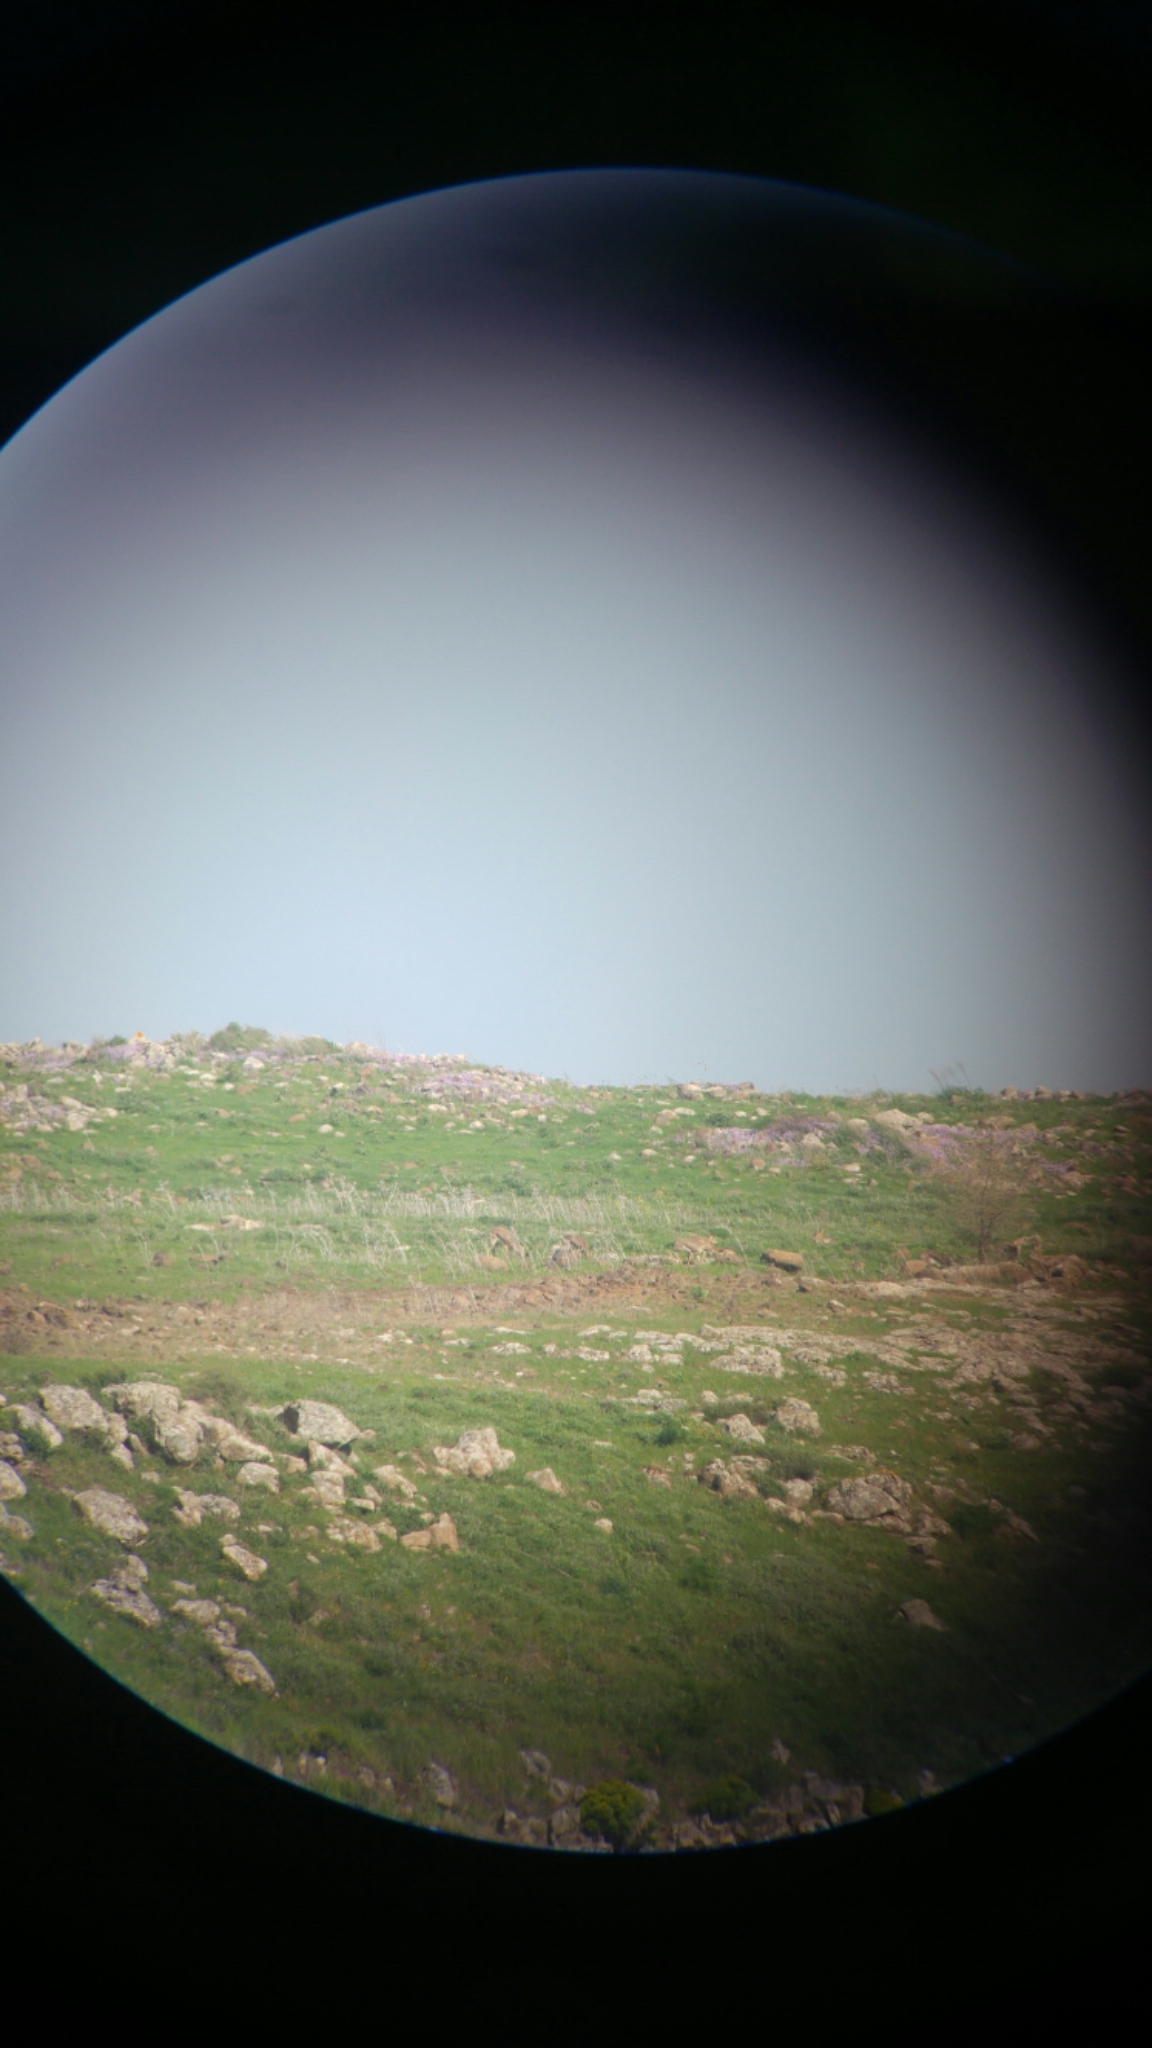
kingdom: Animalia
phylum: Chordata
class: Mammalia
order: Artiodactyla
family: Bovidae
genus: Gazella
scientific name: Gazella gazella
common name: Mountain gazelle
